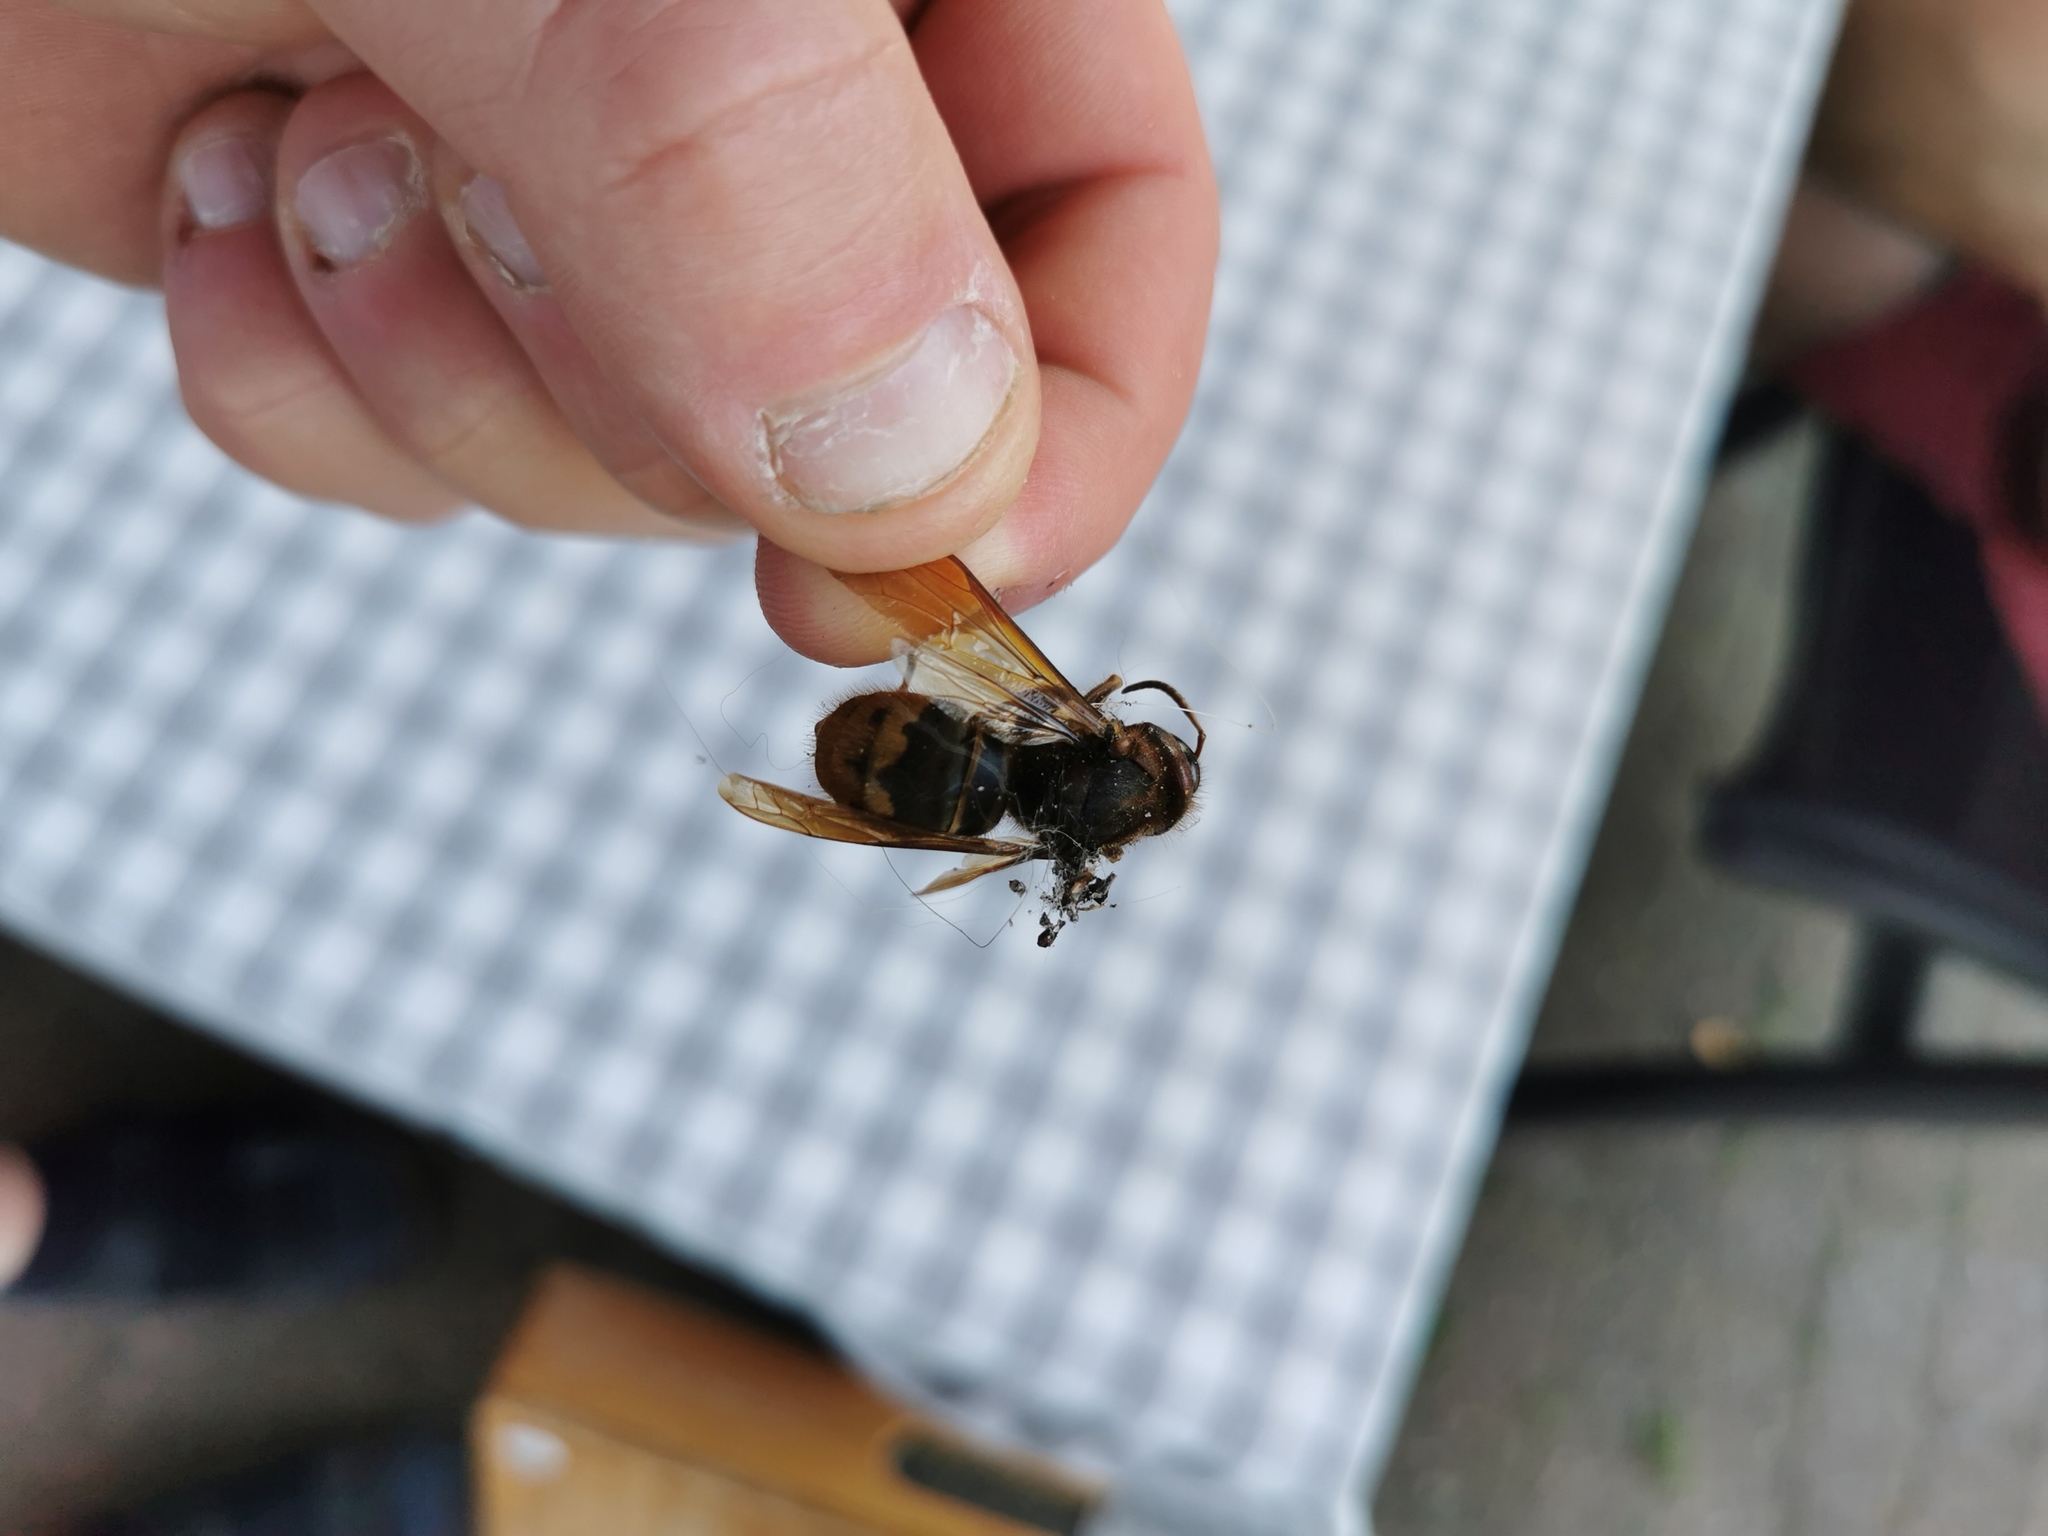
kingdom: Animalia
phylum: Arthropoda
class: Insecta
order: Hymenoptera
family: Vespidae
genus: Vespa
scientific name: Vespa crabro
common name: Hornet
